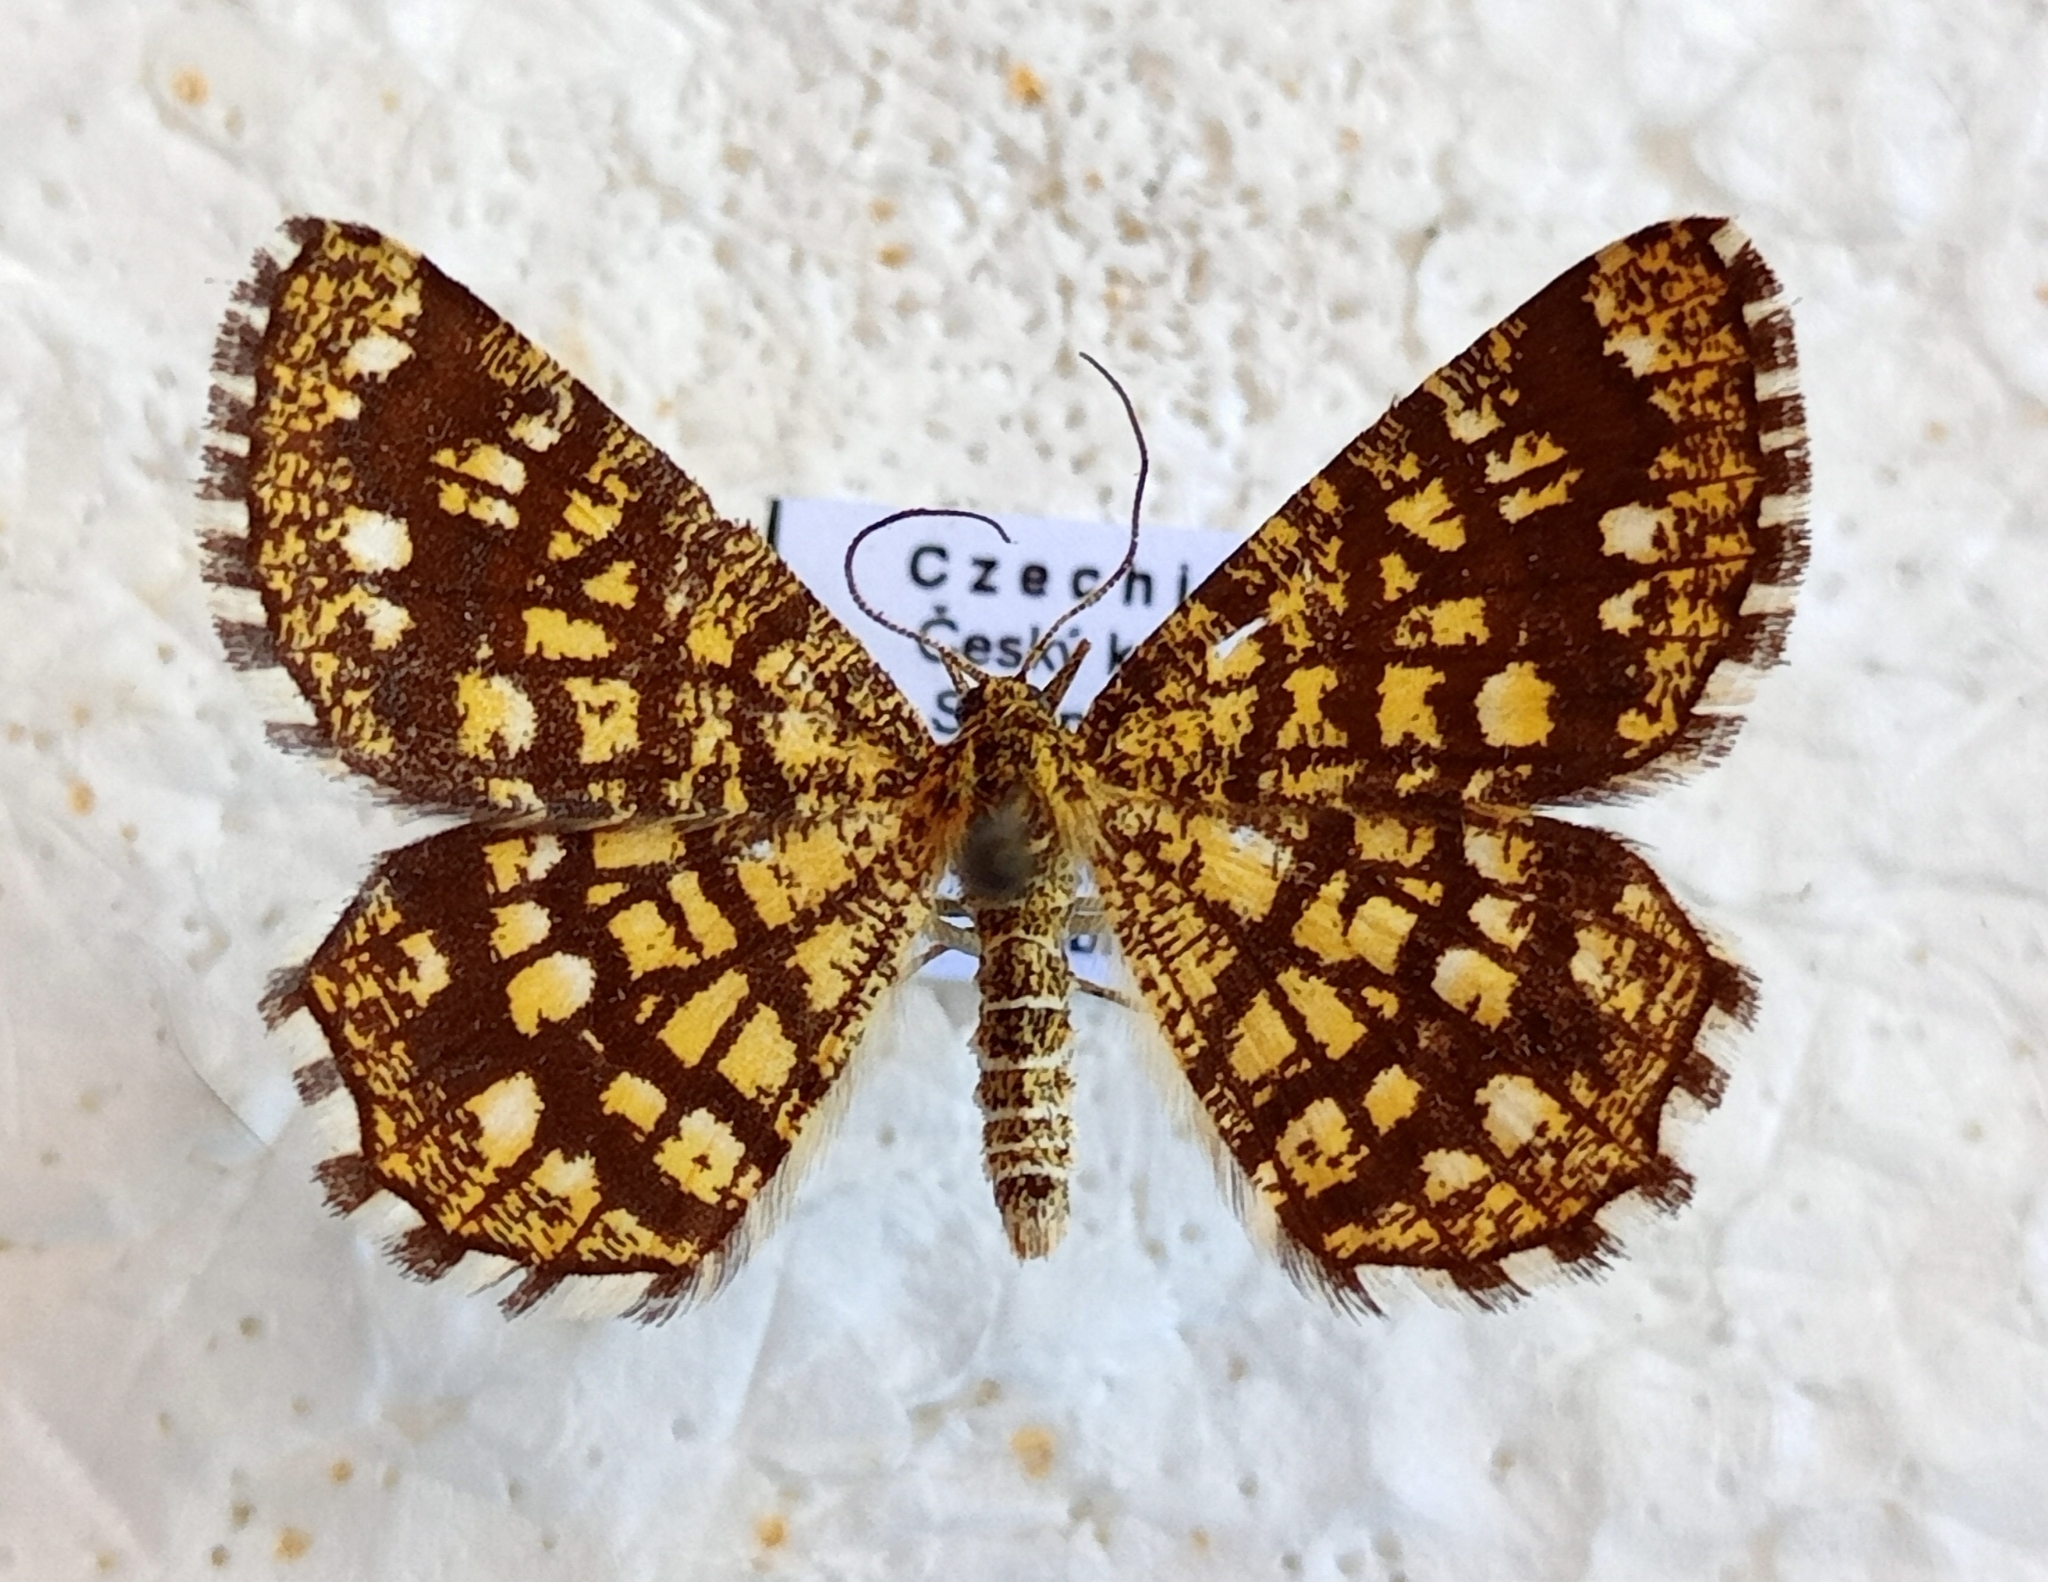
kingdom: Animalia
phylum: Arthropoda
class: Insecta
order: Lepidoptera
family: Geometridae
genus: Chiasmia
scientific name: Chiasmia clathrata
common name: Latticed heath
